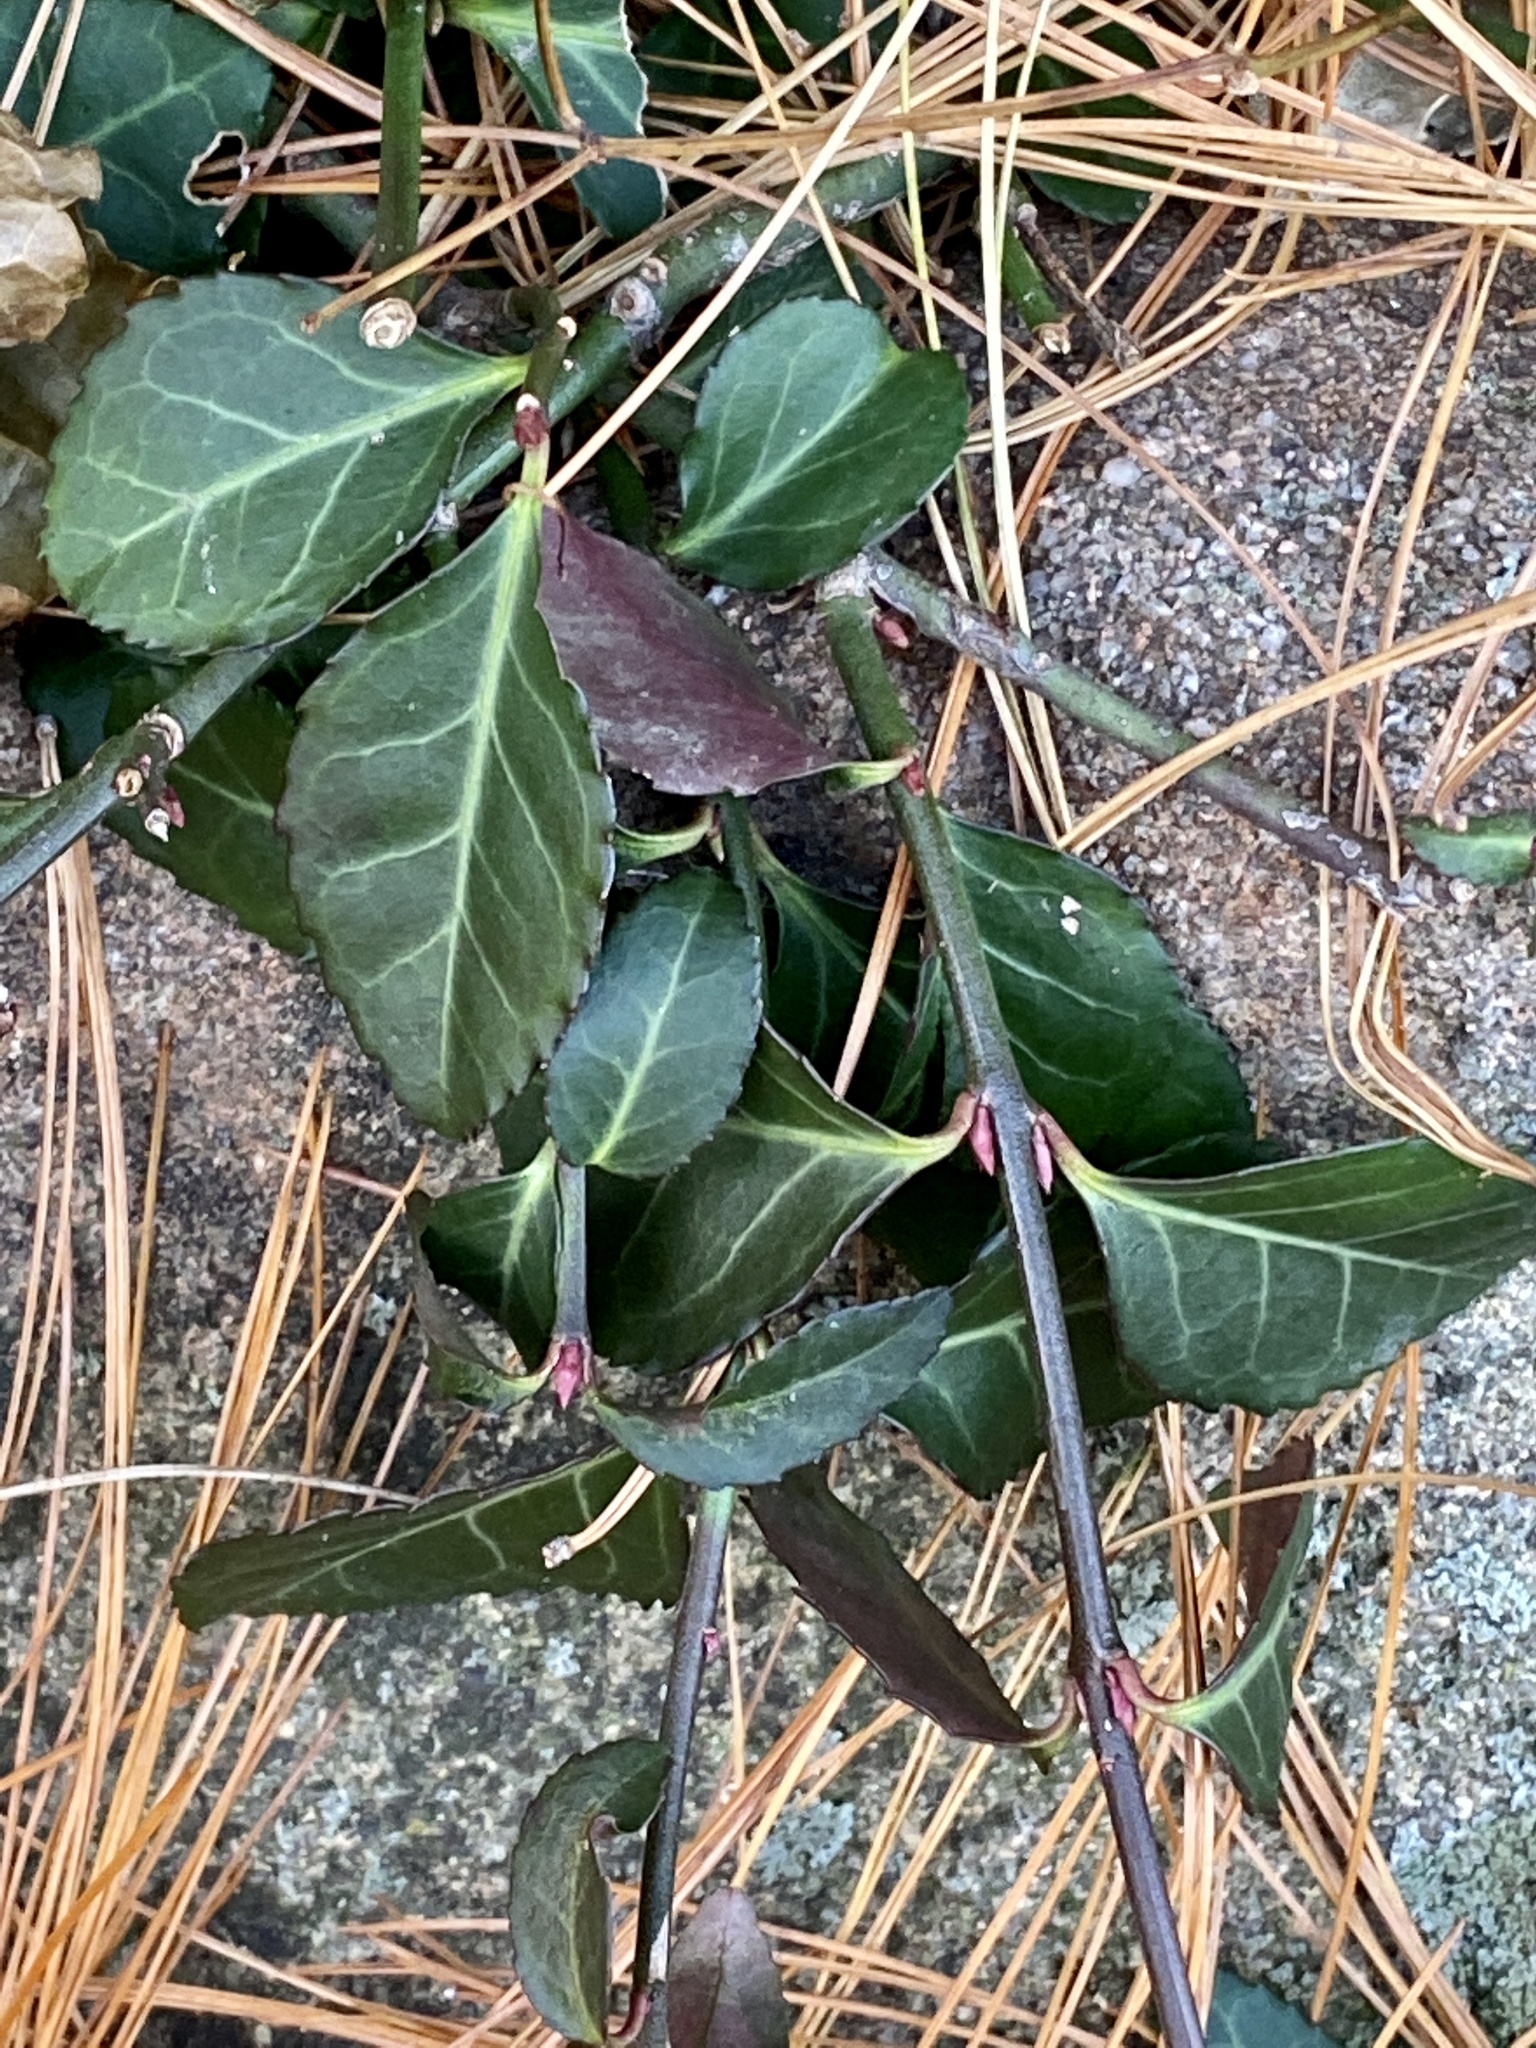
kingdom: Plantae
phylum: Tracheophyta
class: Magnoliopsida
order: Celastrales
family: Celastraceae
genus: Euonymus
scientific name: Euonymus fortunei
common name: Climbing euonymus
